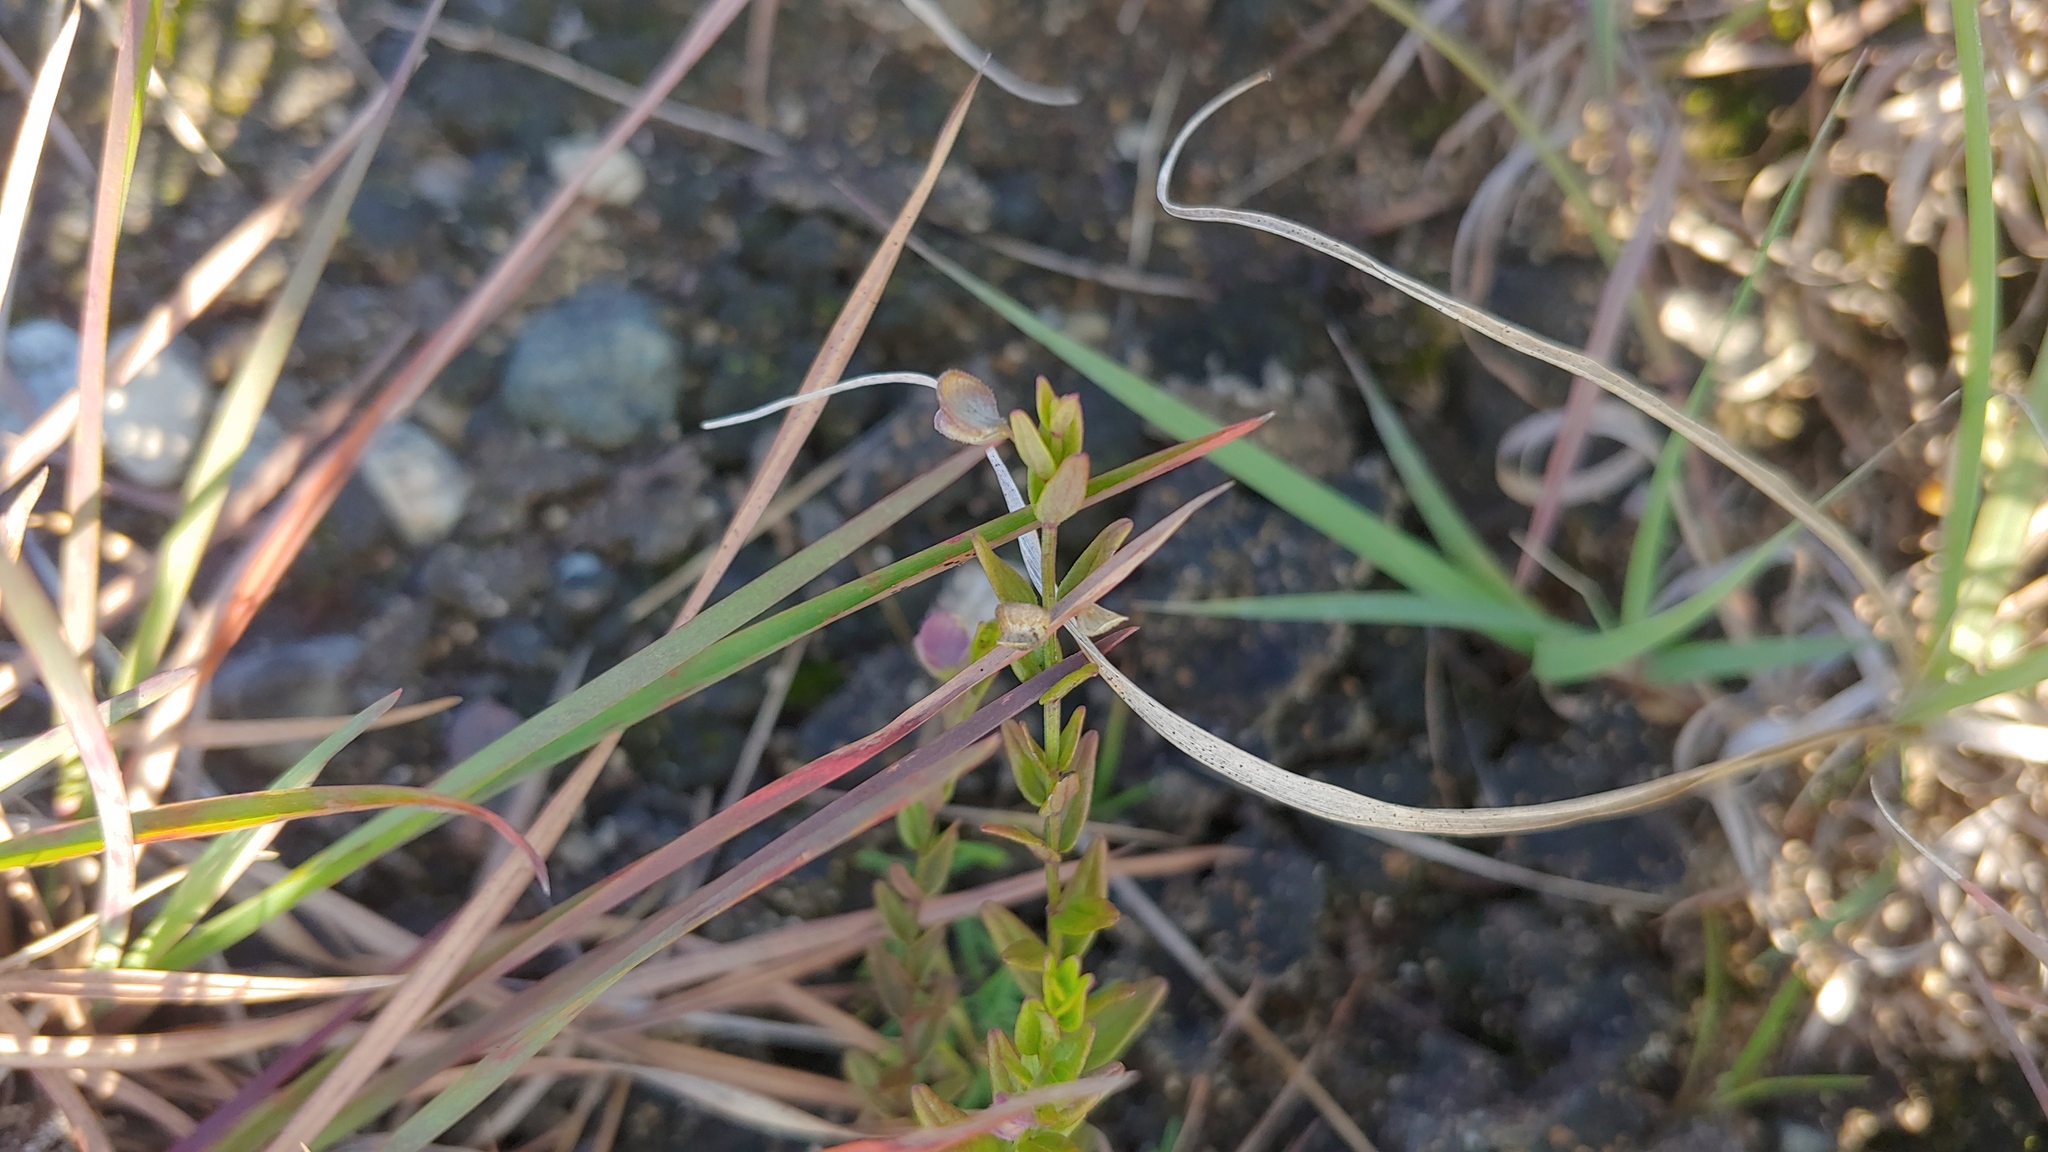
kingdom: Plantae
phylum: Tracheophyta
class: Magnoliopsida
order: Lamiales
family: Lamiaceae
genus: Scutellaria
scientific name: Scutellaria parvula
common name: Little scullcap
